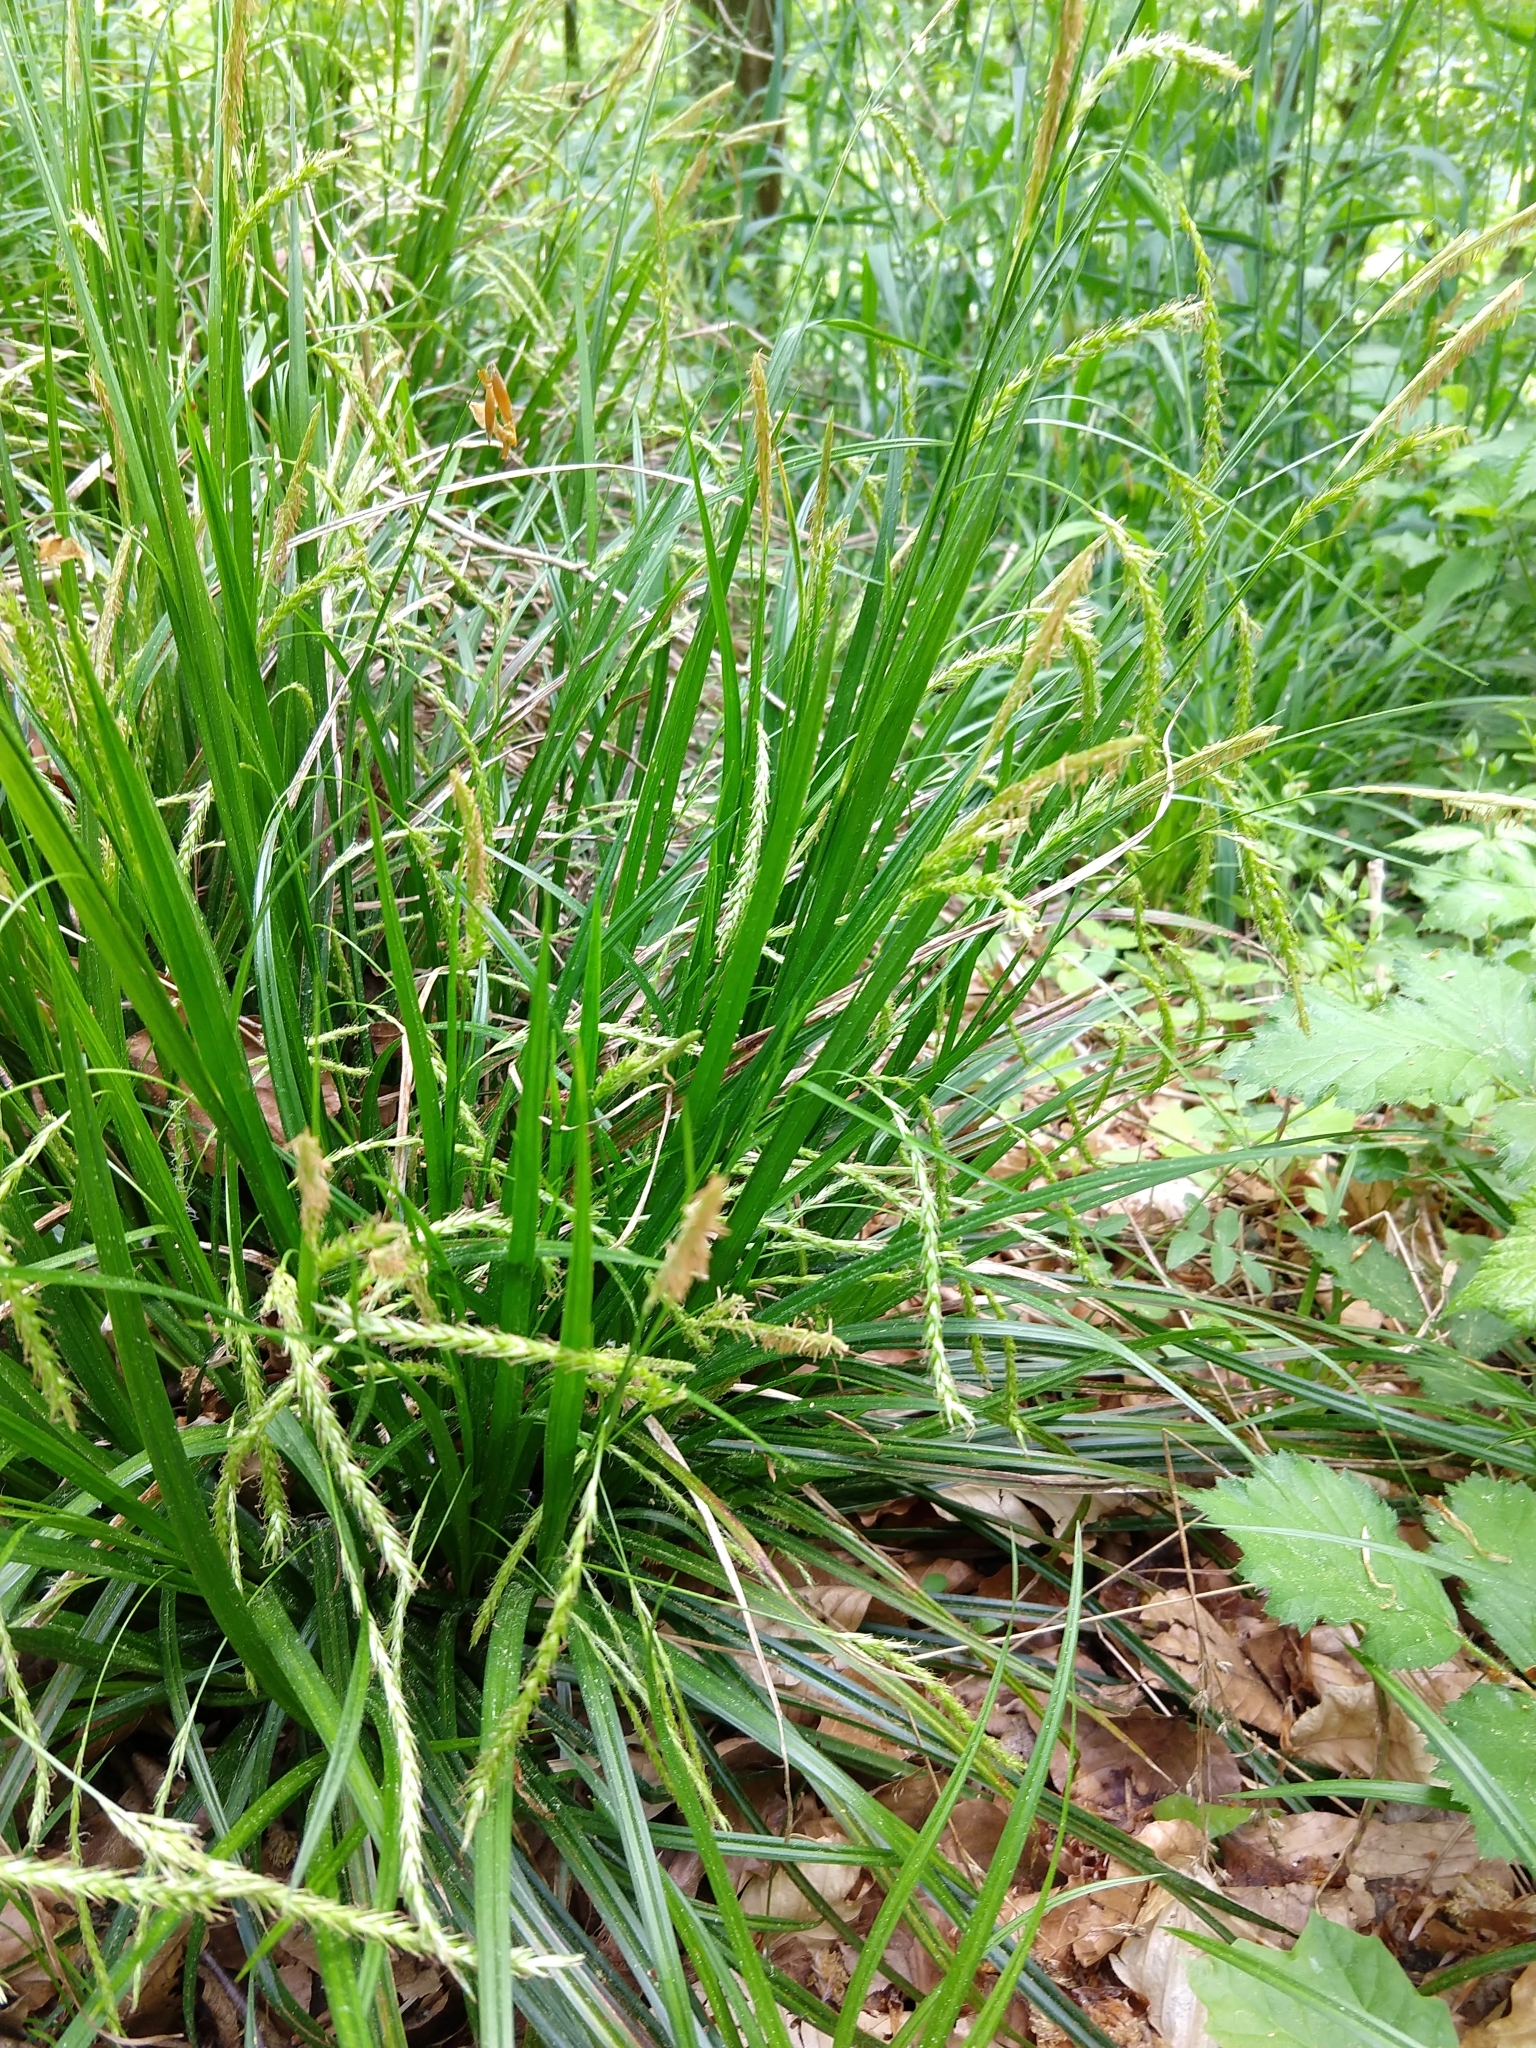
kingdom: Plantae
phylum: Tracheophyta
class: Liliopsida
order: Poales
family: Cyperaceae
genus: Carex
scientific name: Carex sylvatica
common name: Wood-sedge
